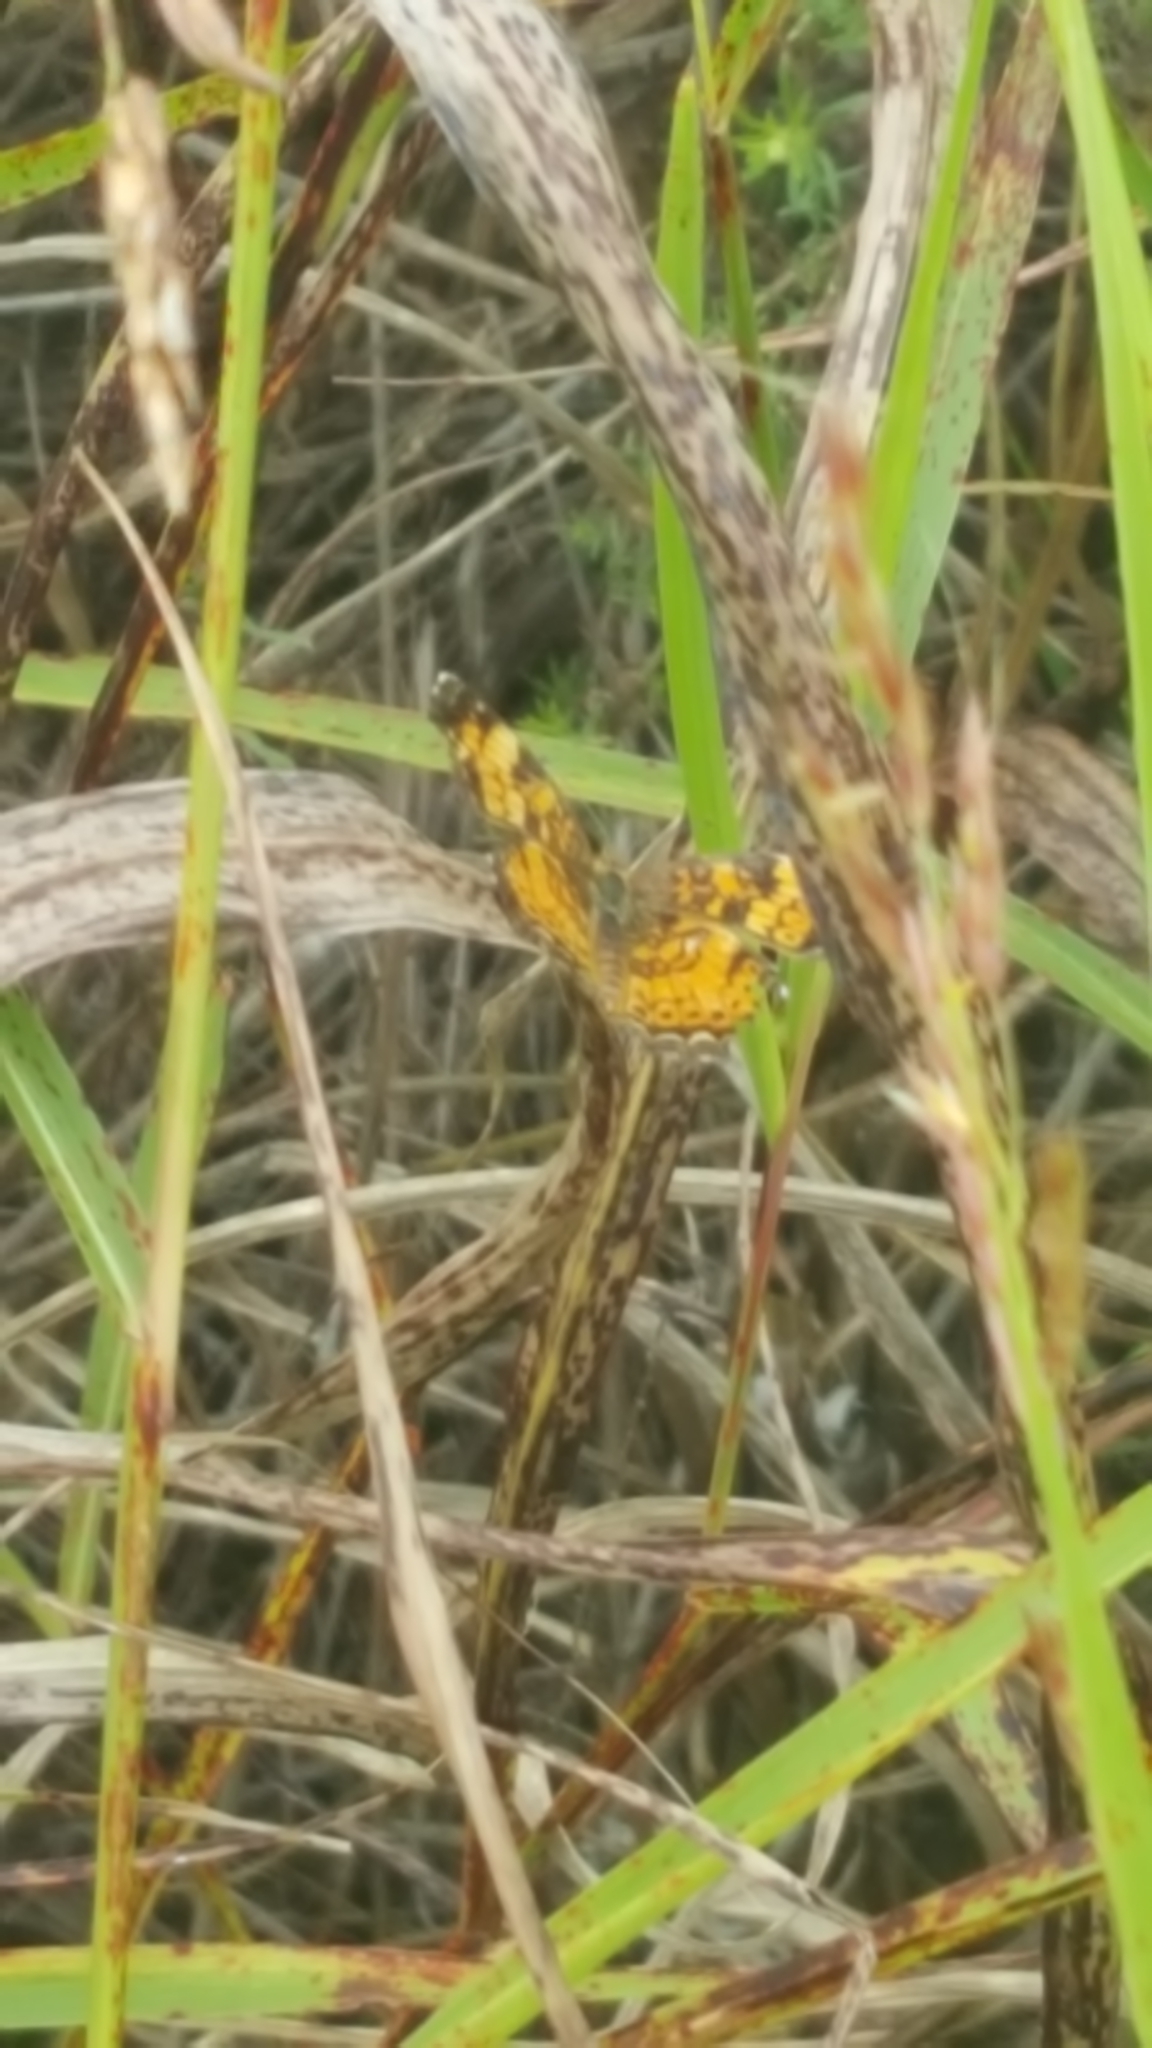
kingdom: Animalia
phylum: Arthropoda
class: Insecta
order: Lepidoptera
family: Nymphalidae
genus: Phyciodes
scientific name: Phyciodes tharos
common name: Pearl crescent
